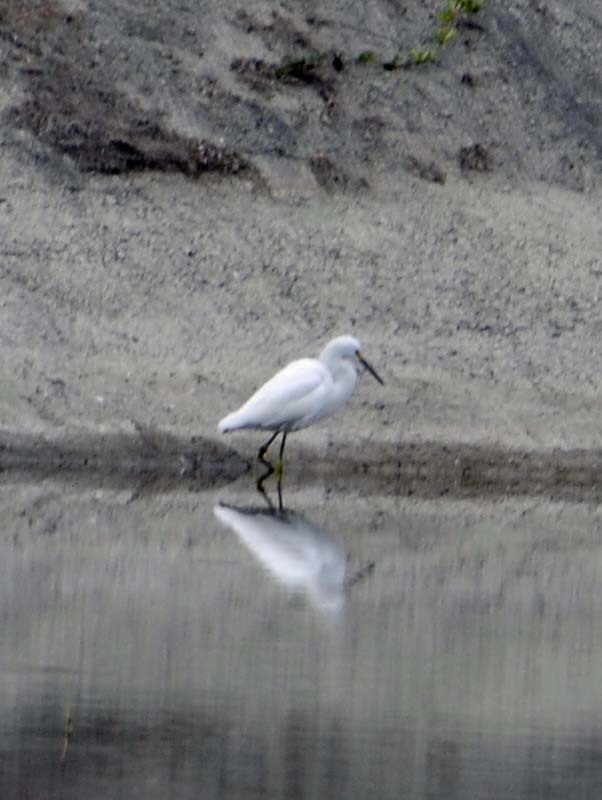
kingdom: Animalia
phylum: Chordata
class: Aves
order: Pelecaniformes
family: Ardeidae
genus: Egretta
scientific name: Egretta thula
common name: Snowy egret
